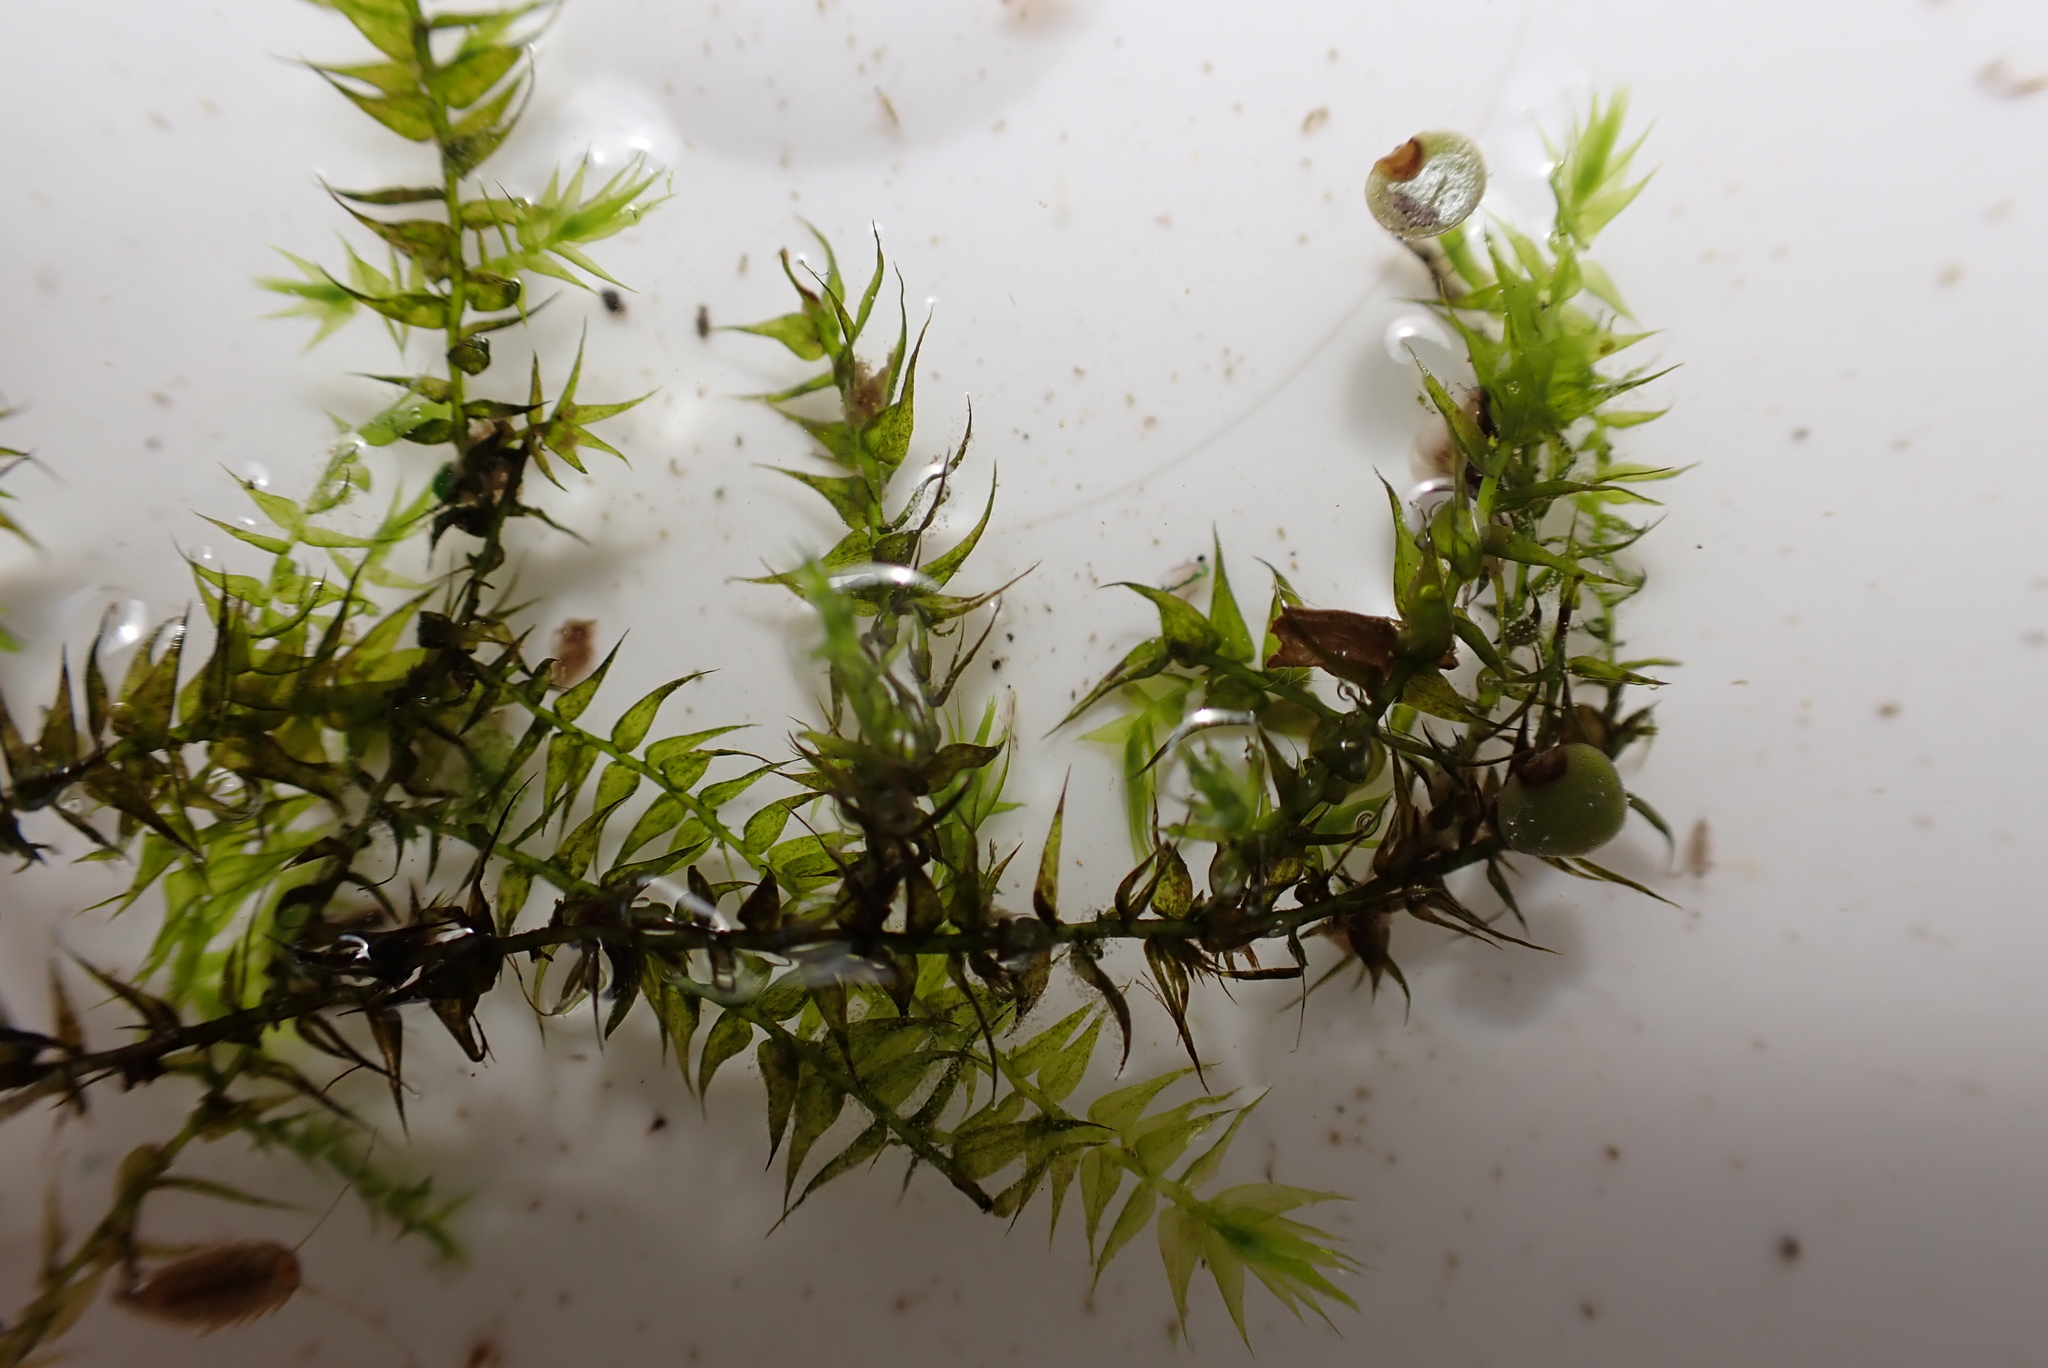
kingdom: Plantae
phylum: Bryophyta
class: Bryopsida
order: Hypnales
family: Amblystegiaceae
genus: Leptodictyum
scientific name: Leptodictyum riparium
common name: Riparian feather moss
